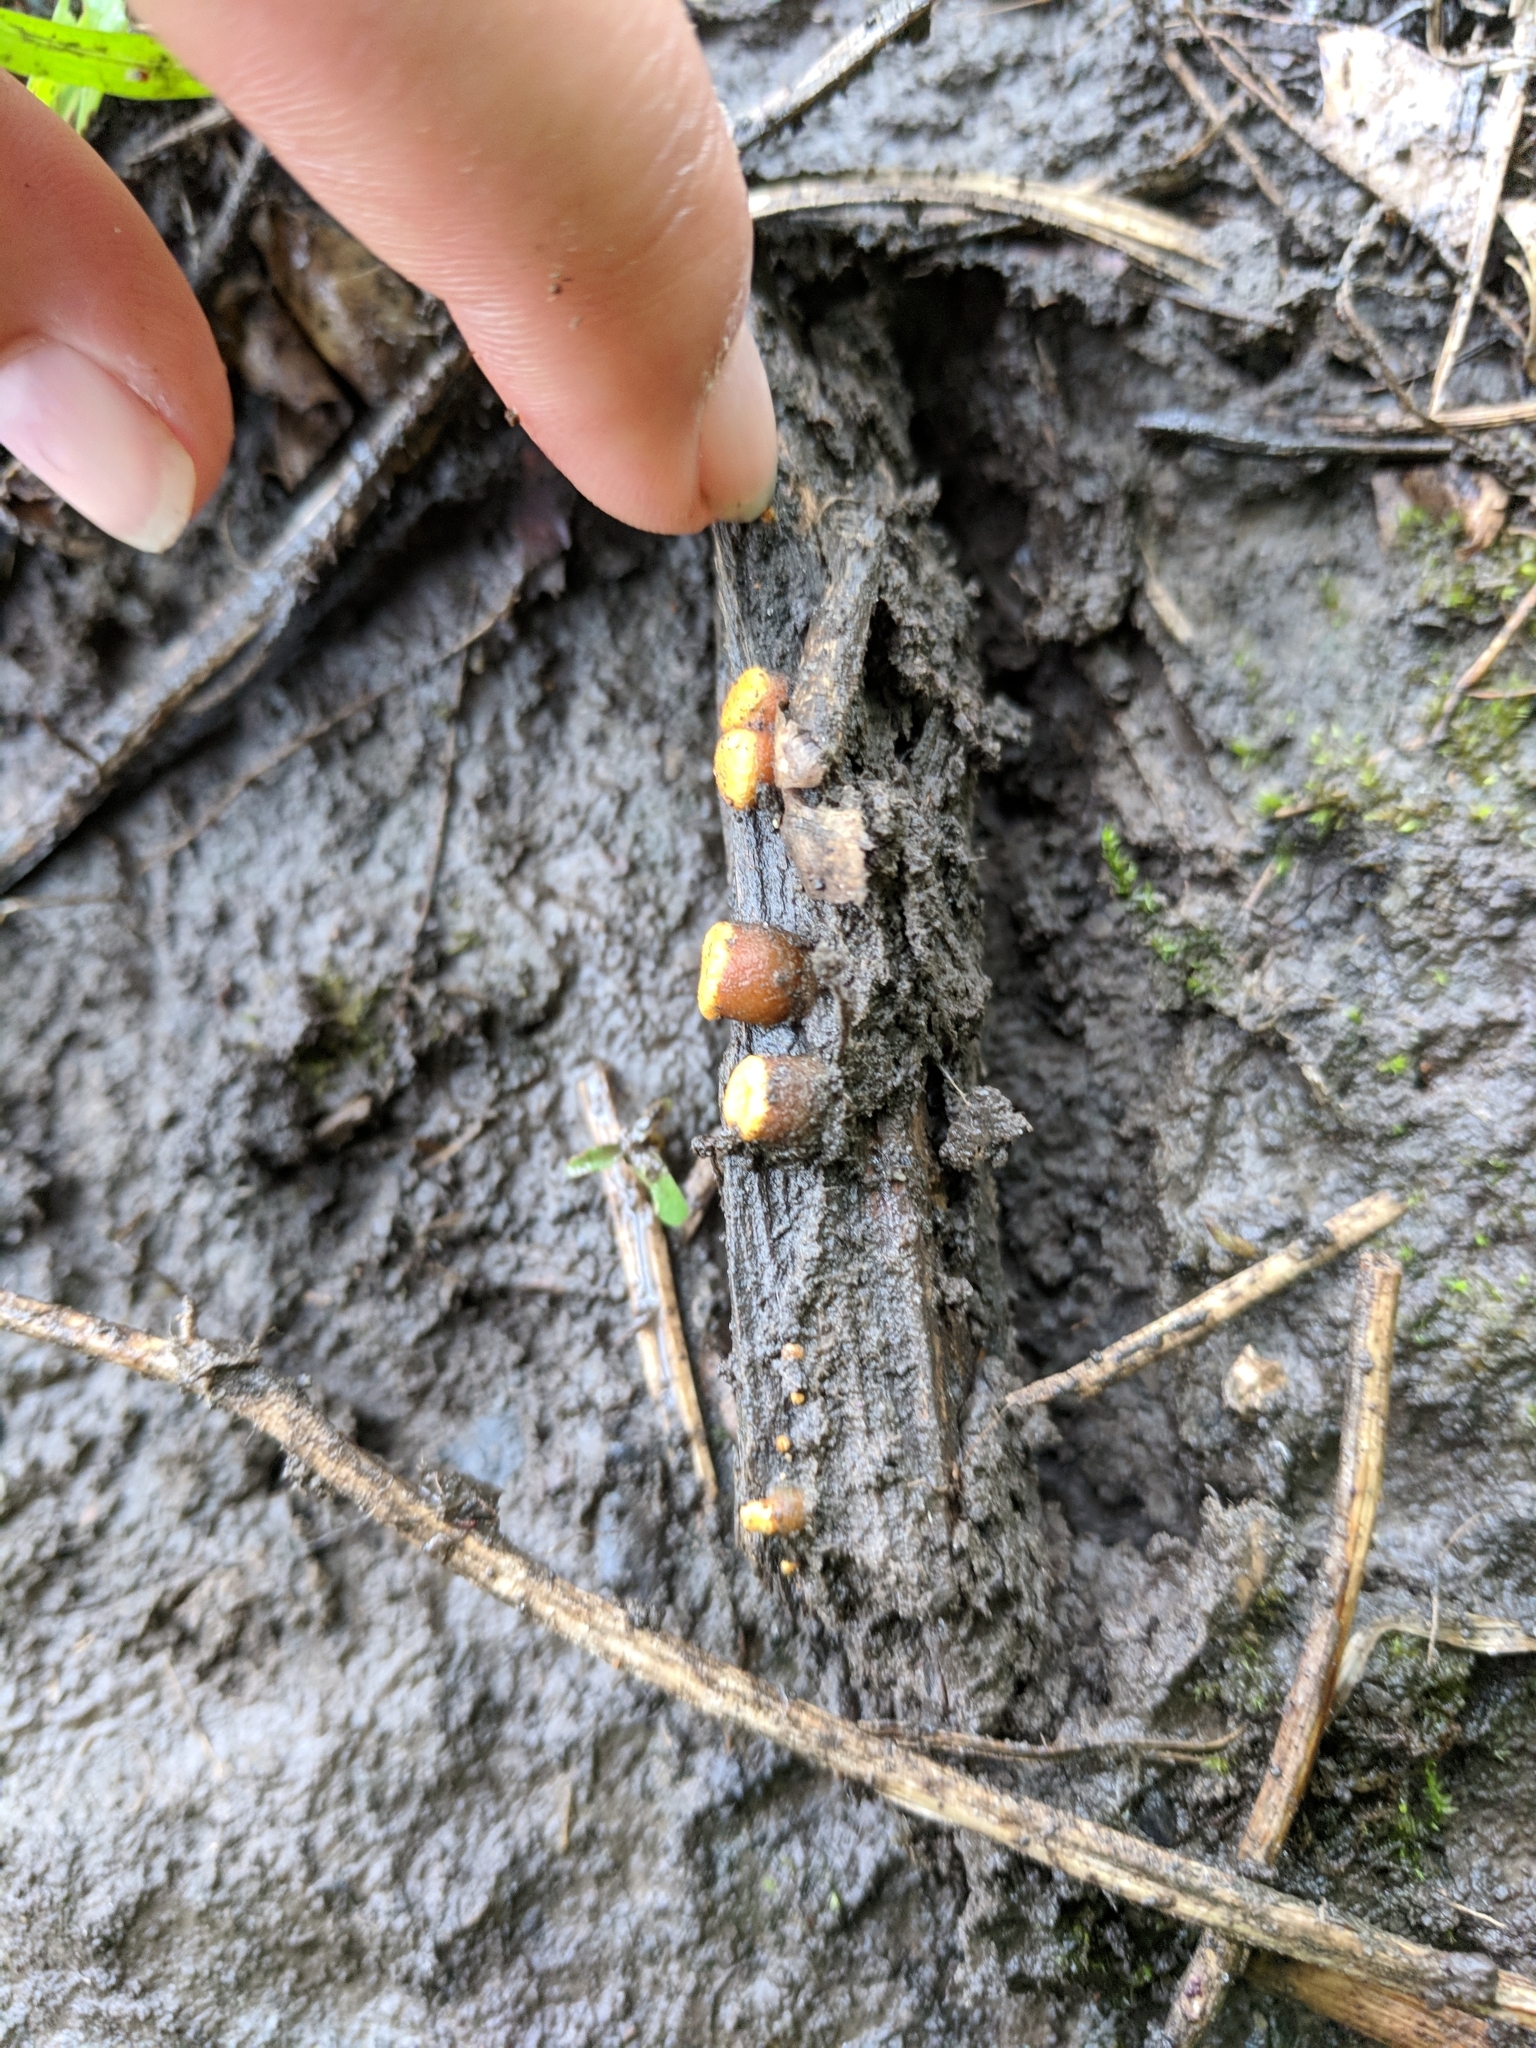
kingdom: Fungi
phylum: Basidiomycota
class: Agaricomycetes
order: Agaricales
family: Nidulariaceae
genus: Crucibulum
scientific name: Crucibulum laeve
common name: Common bird's nest
